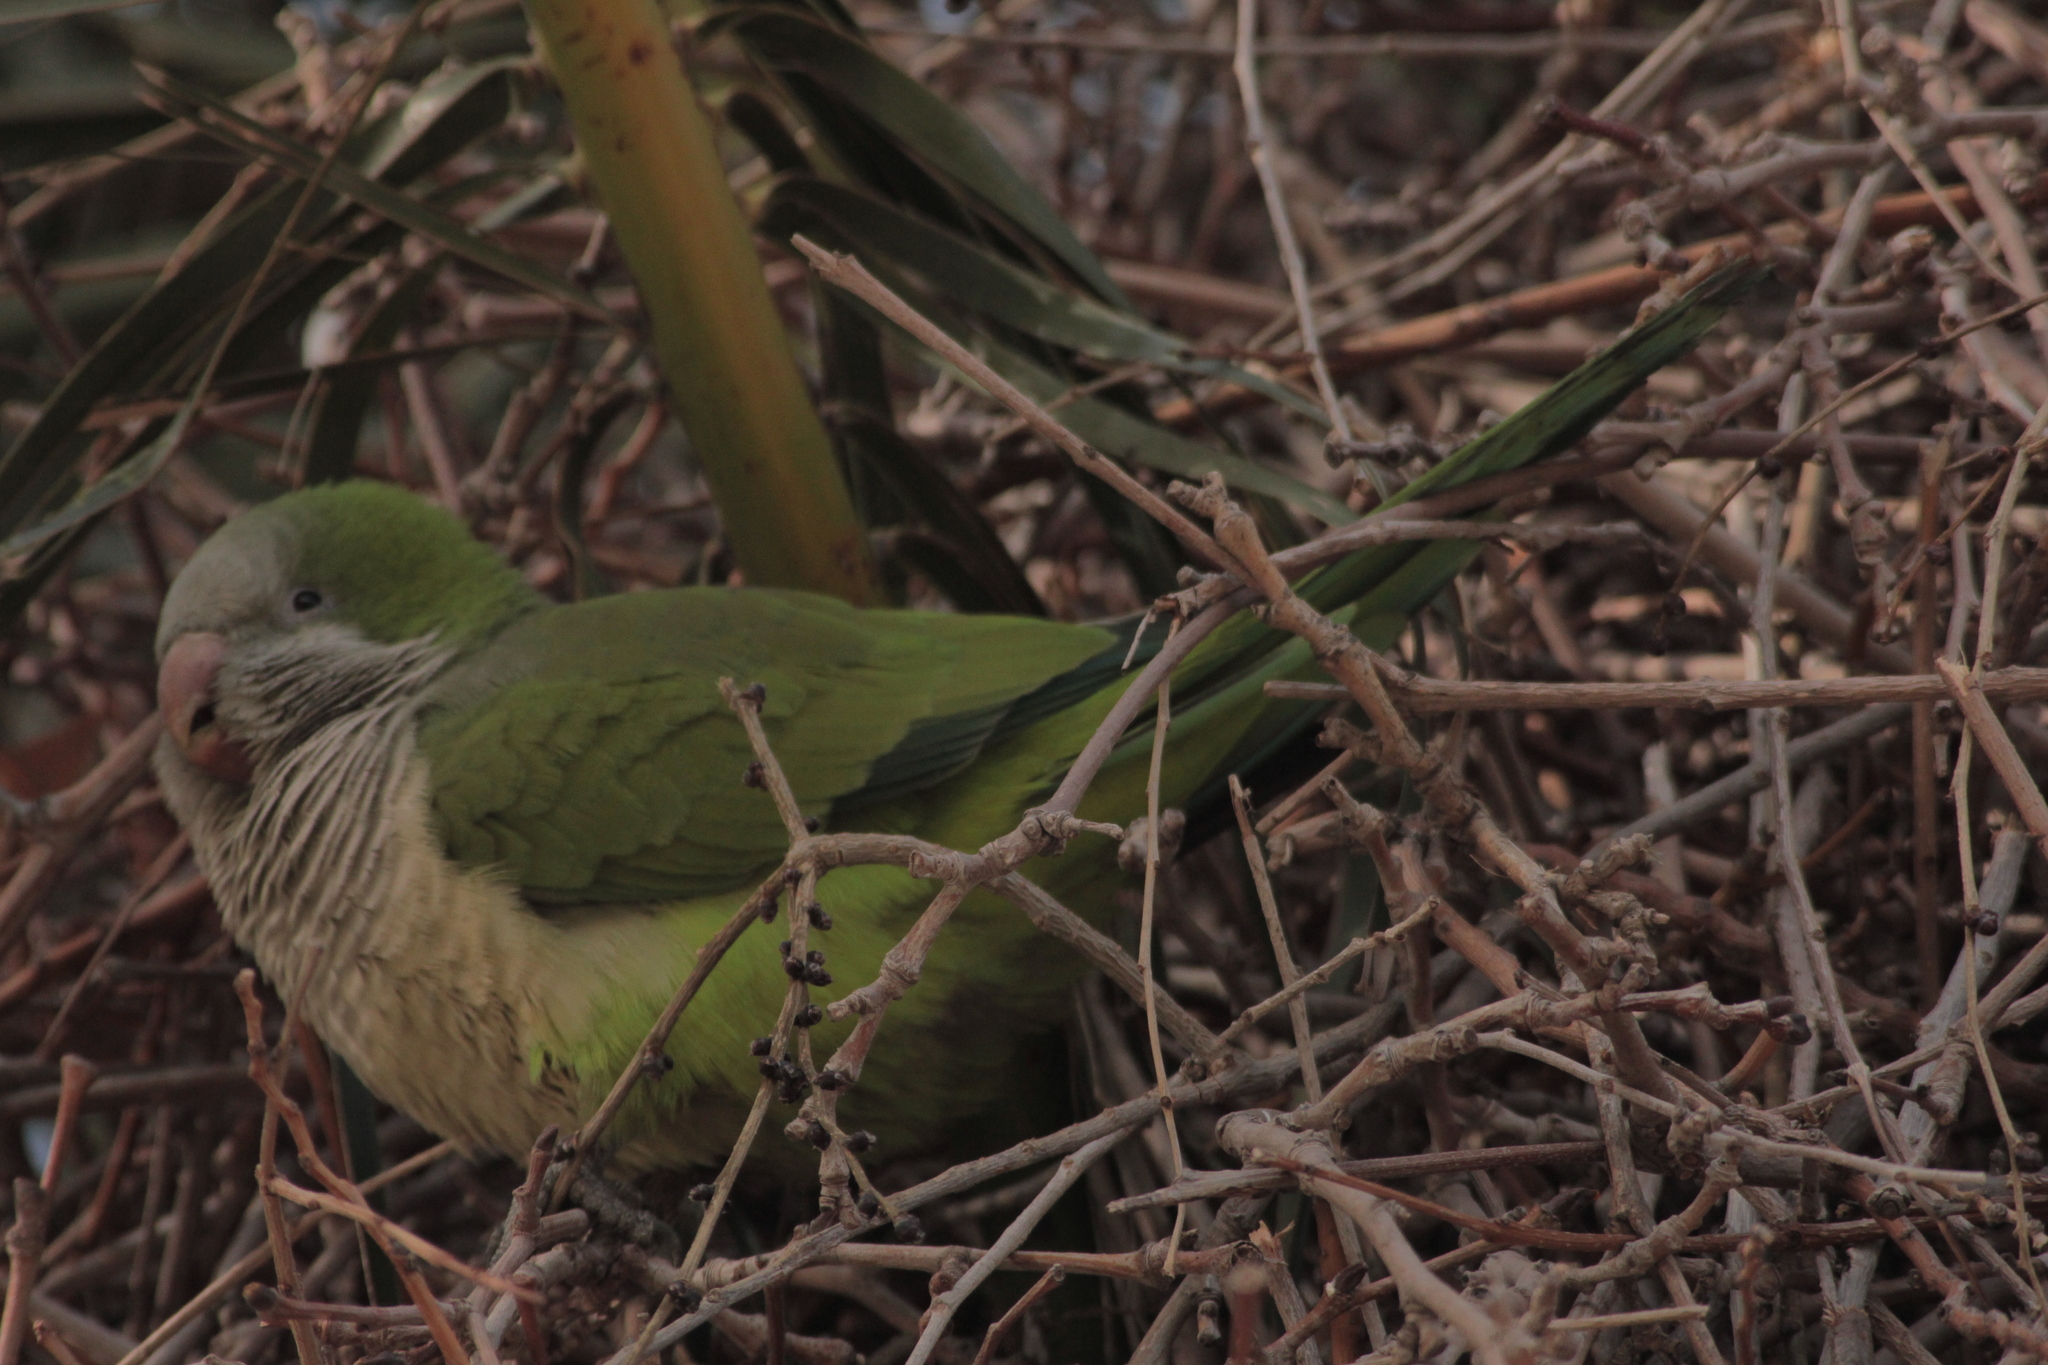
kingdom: Animalia
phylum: Chordata
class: Aves
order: Psittaciformes
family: Psittacidae
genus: Myiopsitta
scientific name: Myiopsitta monachus
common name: Monk parakeet
